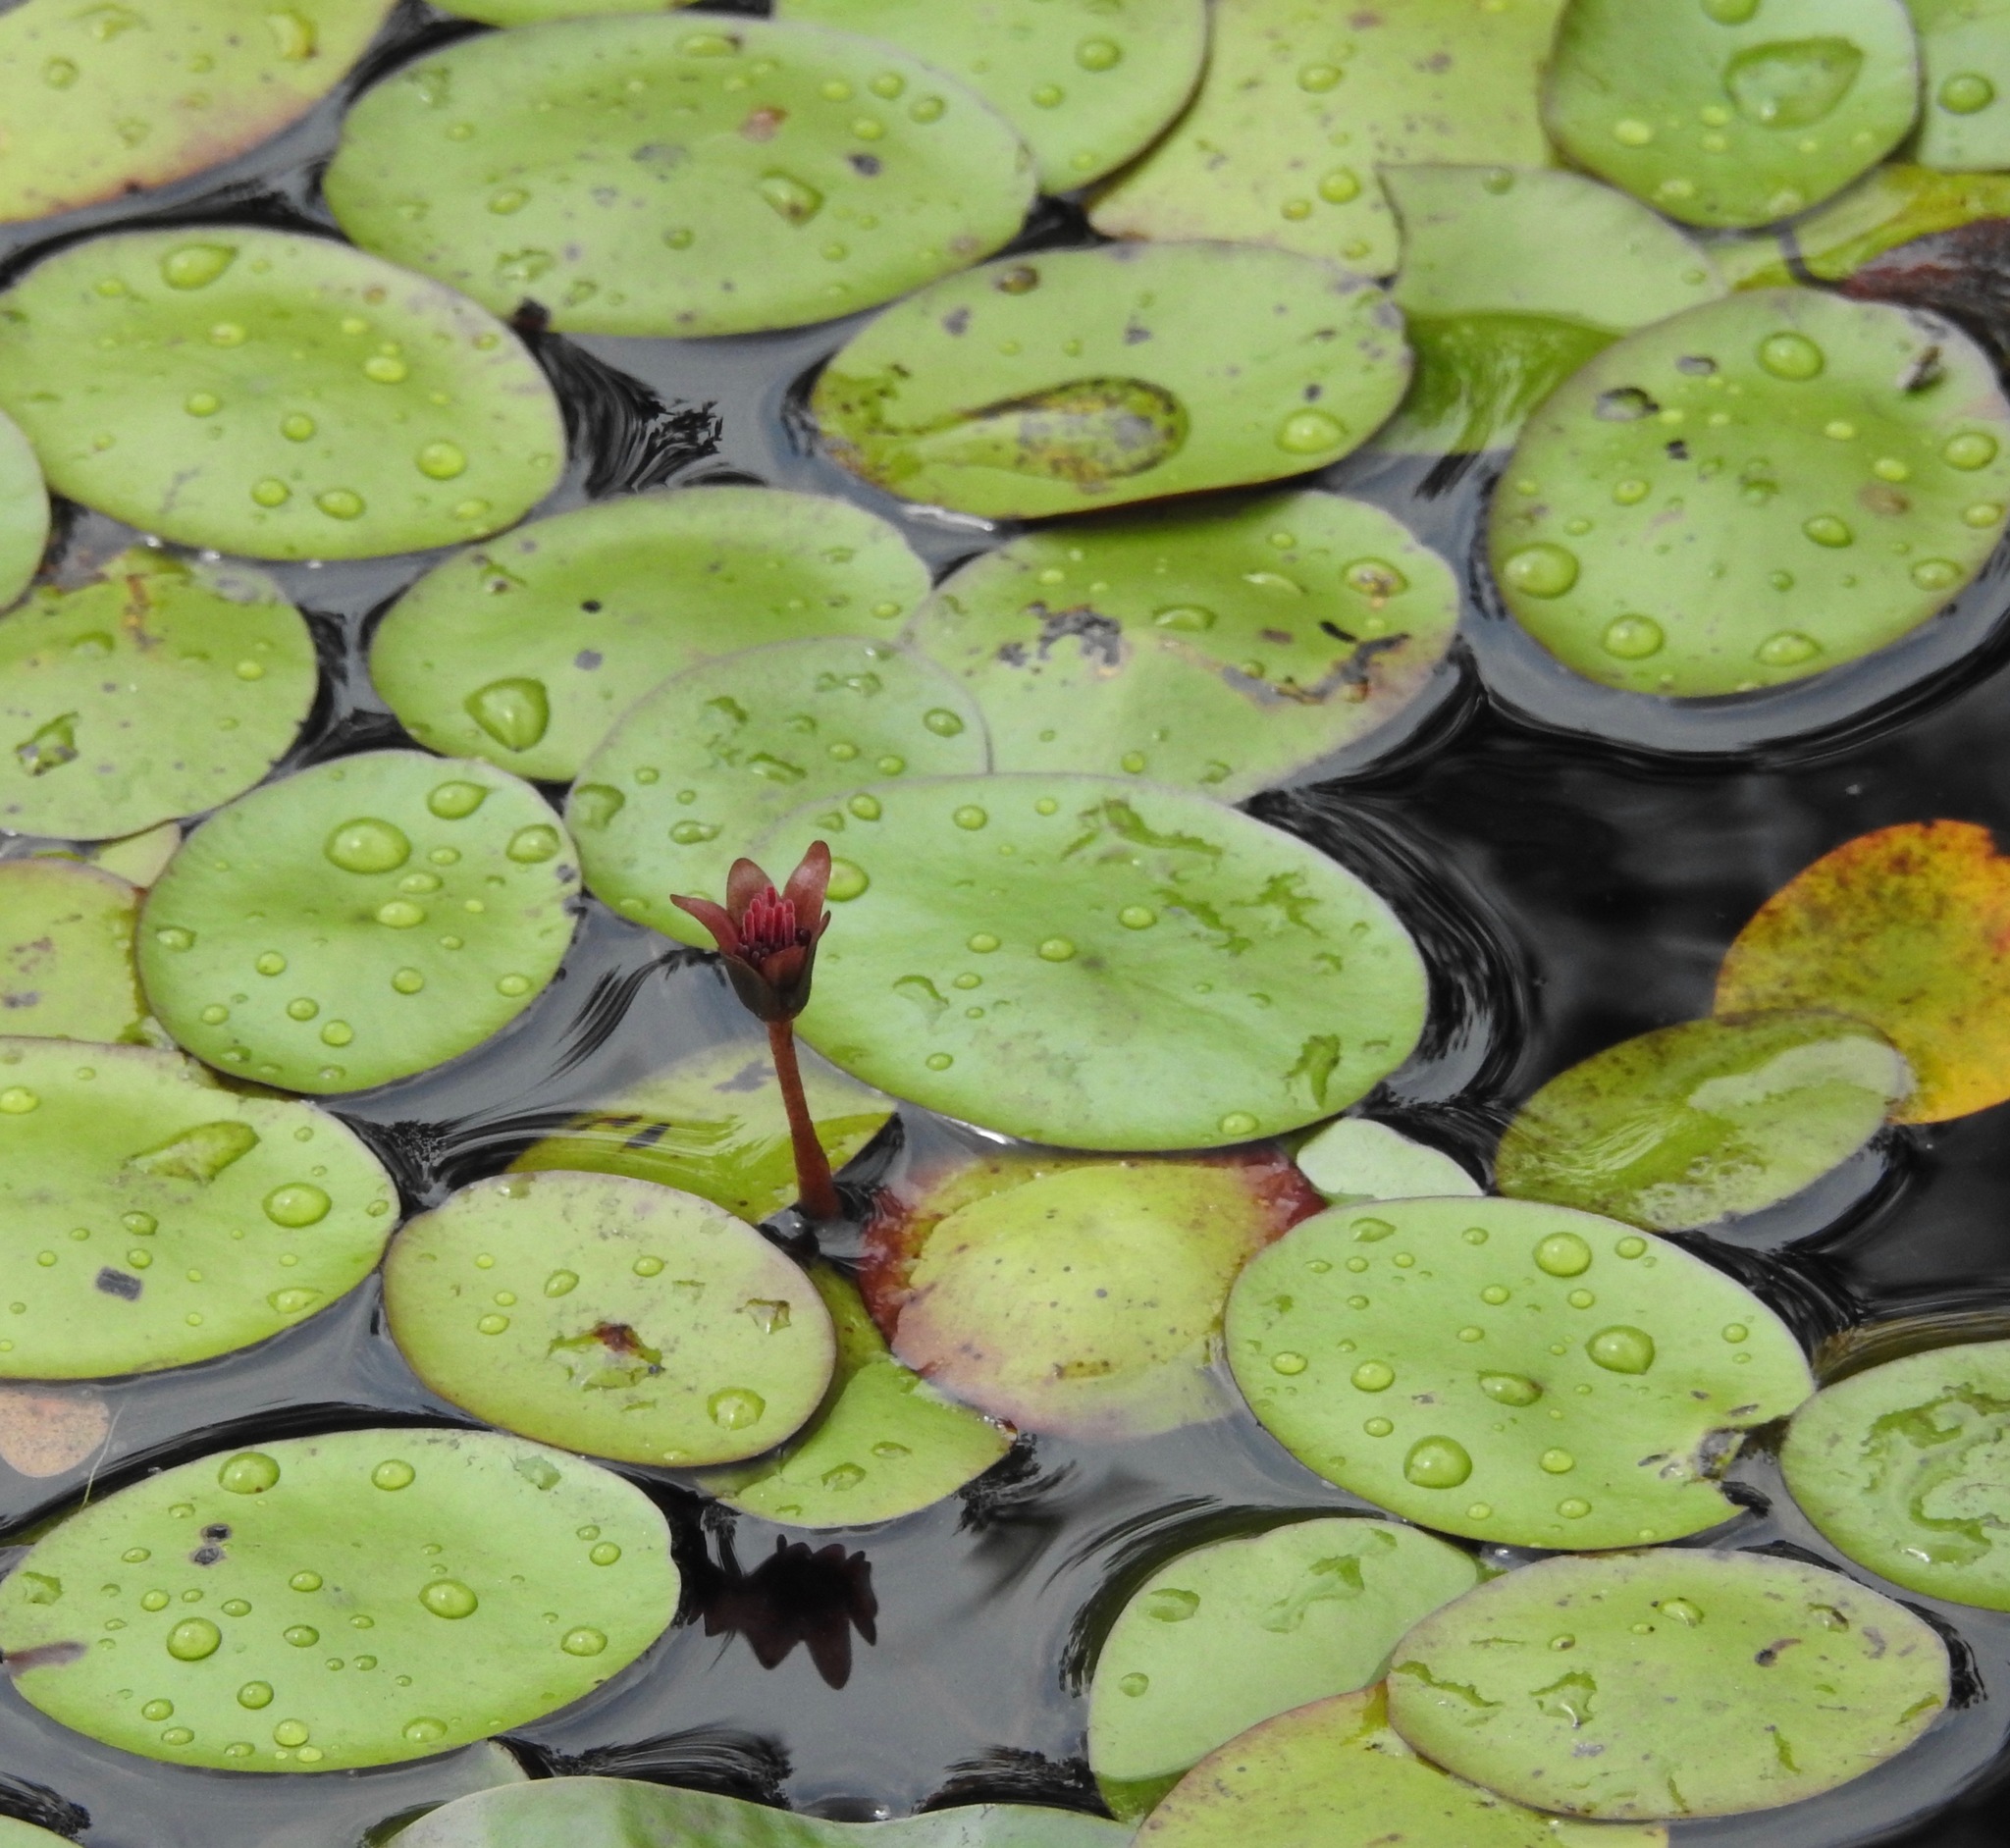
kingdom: Plantae
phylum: Tracheophyta
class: Magnoliopsida
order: Nymphaeales
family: Cabombaceae
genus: Brasenia
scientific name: Brasenia schreberi
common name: Water-shield
